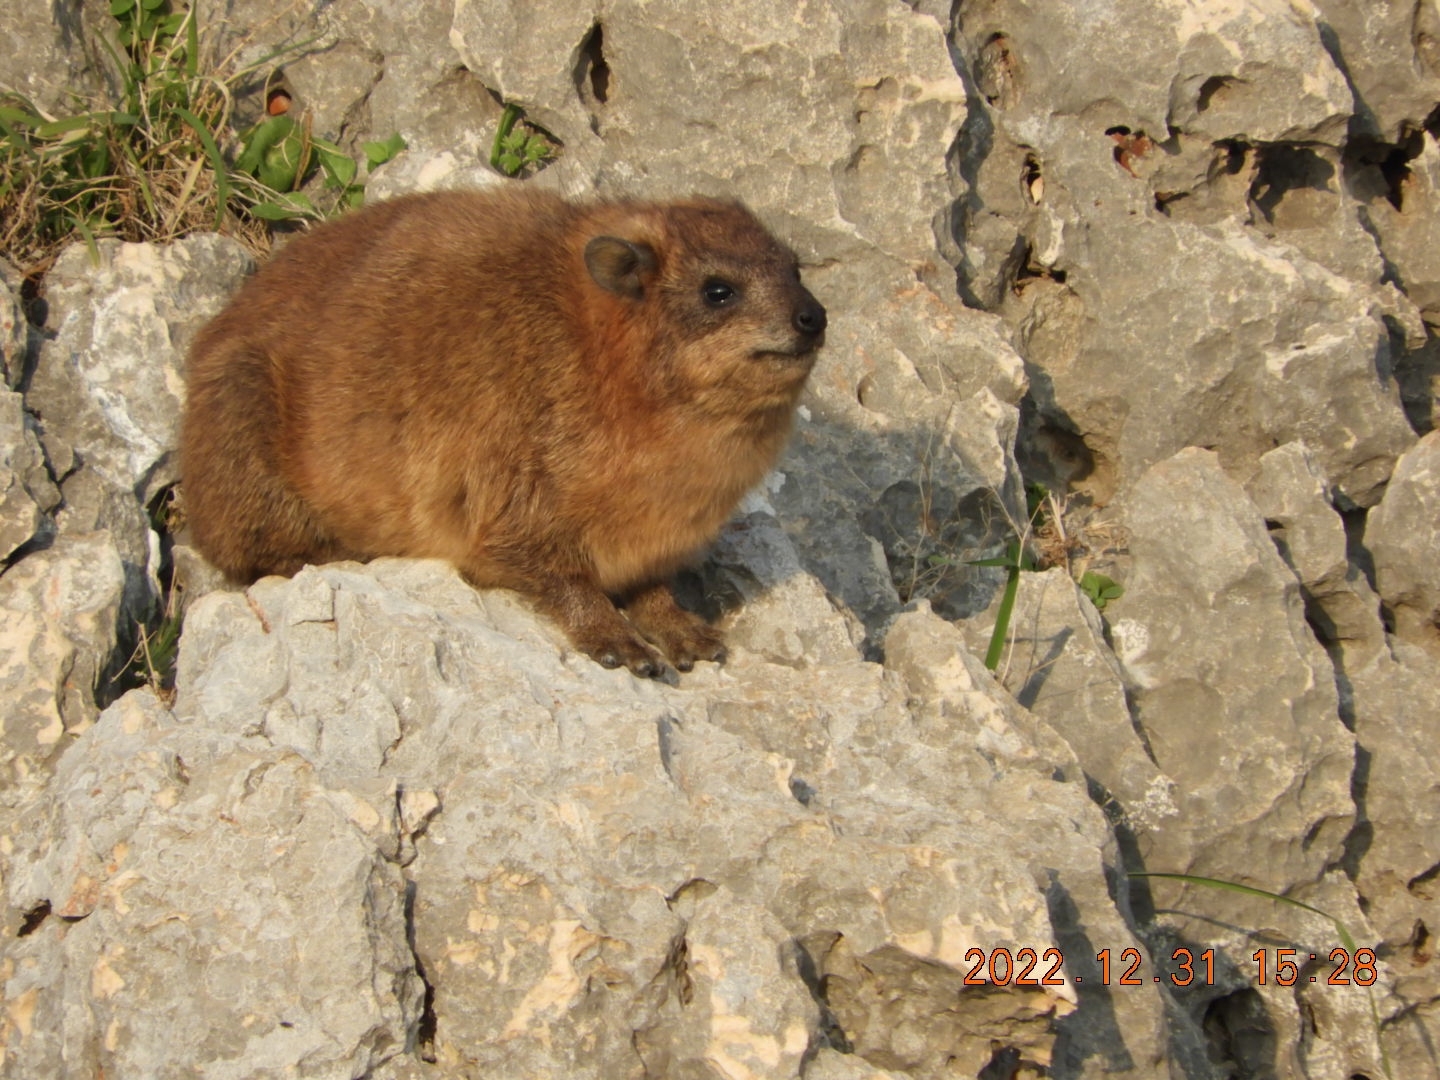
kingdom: Animalia
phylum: Chordata
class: Mammalia
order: Hyracoidea
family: Procaviidae
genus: Procavia
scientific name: Procavia capensis
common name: Rock hyrax
